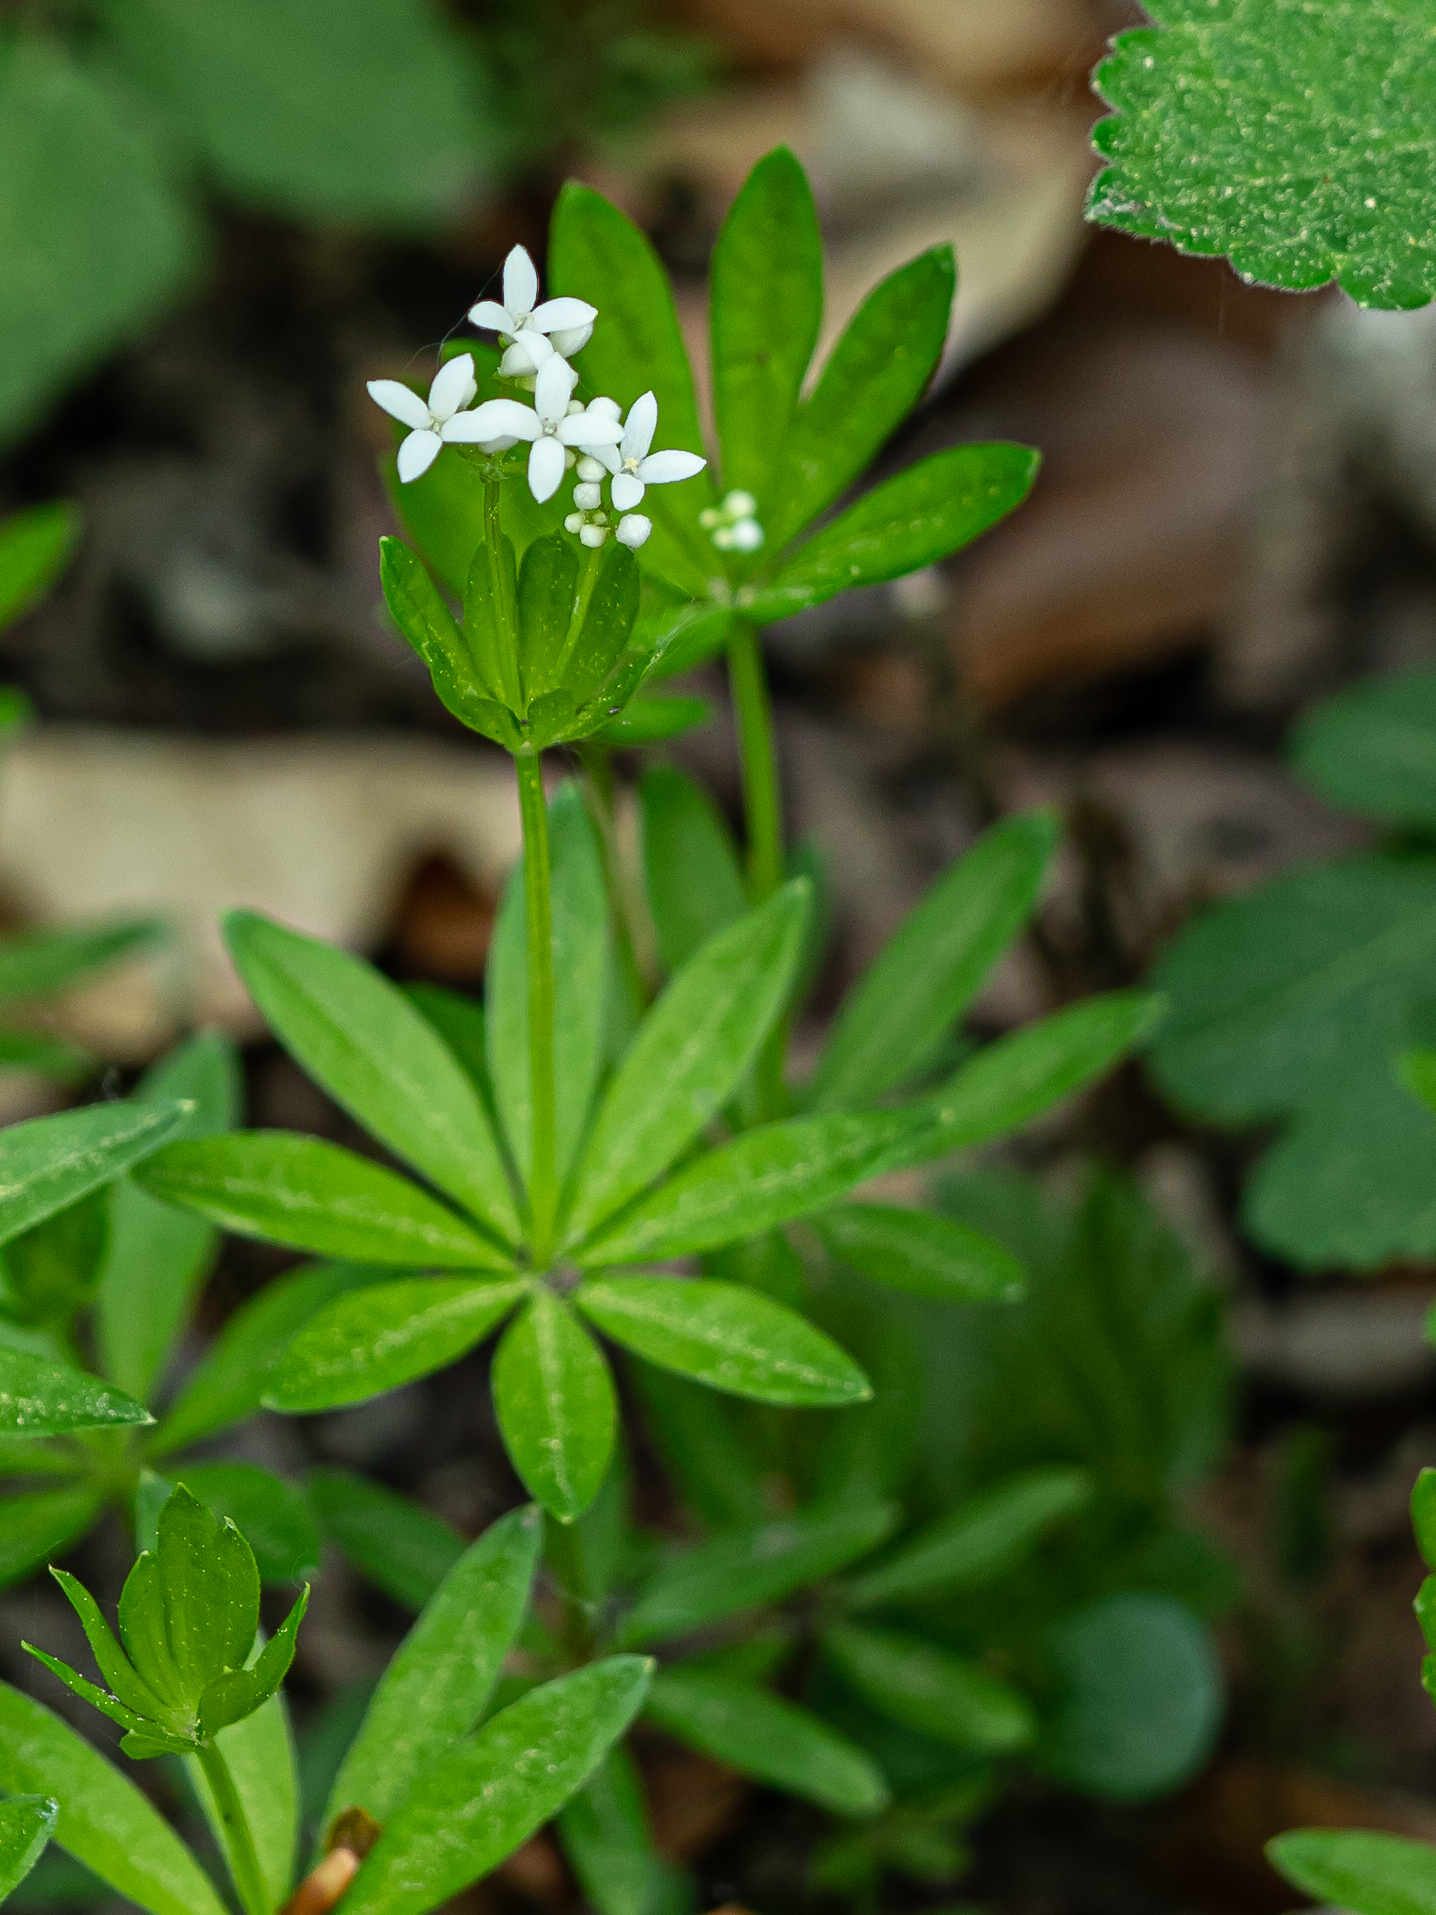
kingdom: Plantae
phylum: Tracheophyta
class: Magnoliopsida
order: Gentianales
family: Rubiaceae
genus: Galium
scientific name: Galium odoratum
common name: Sweet woodruff
